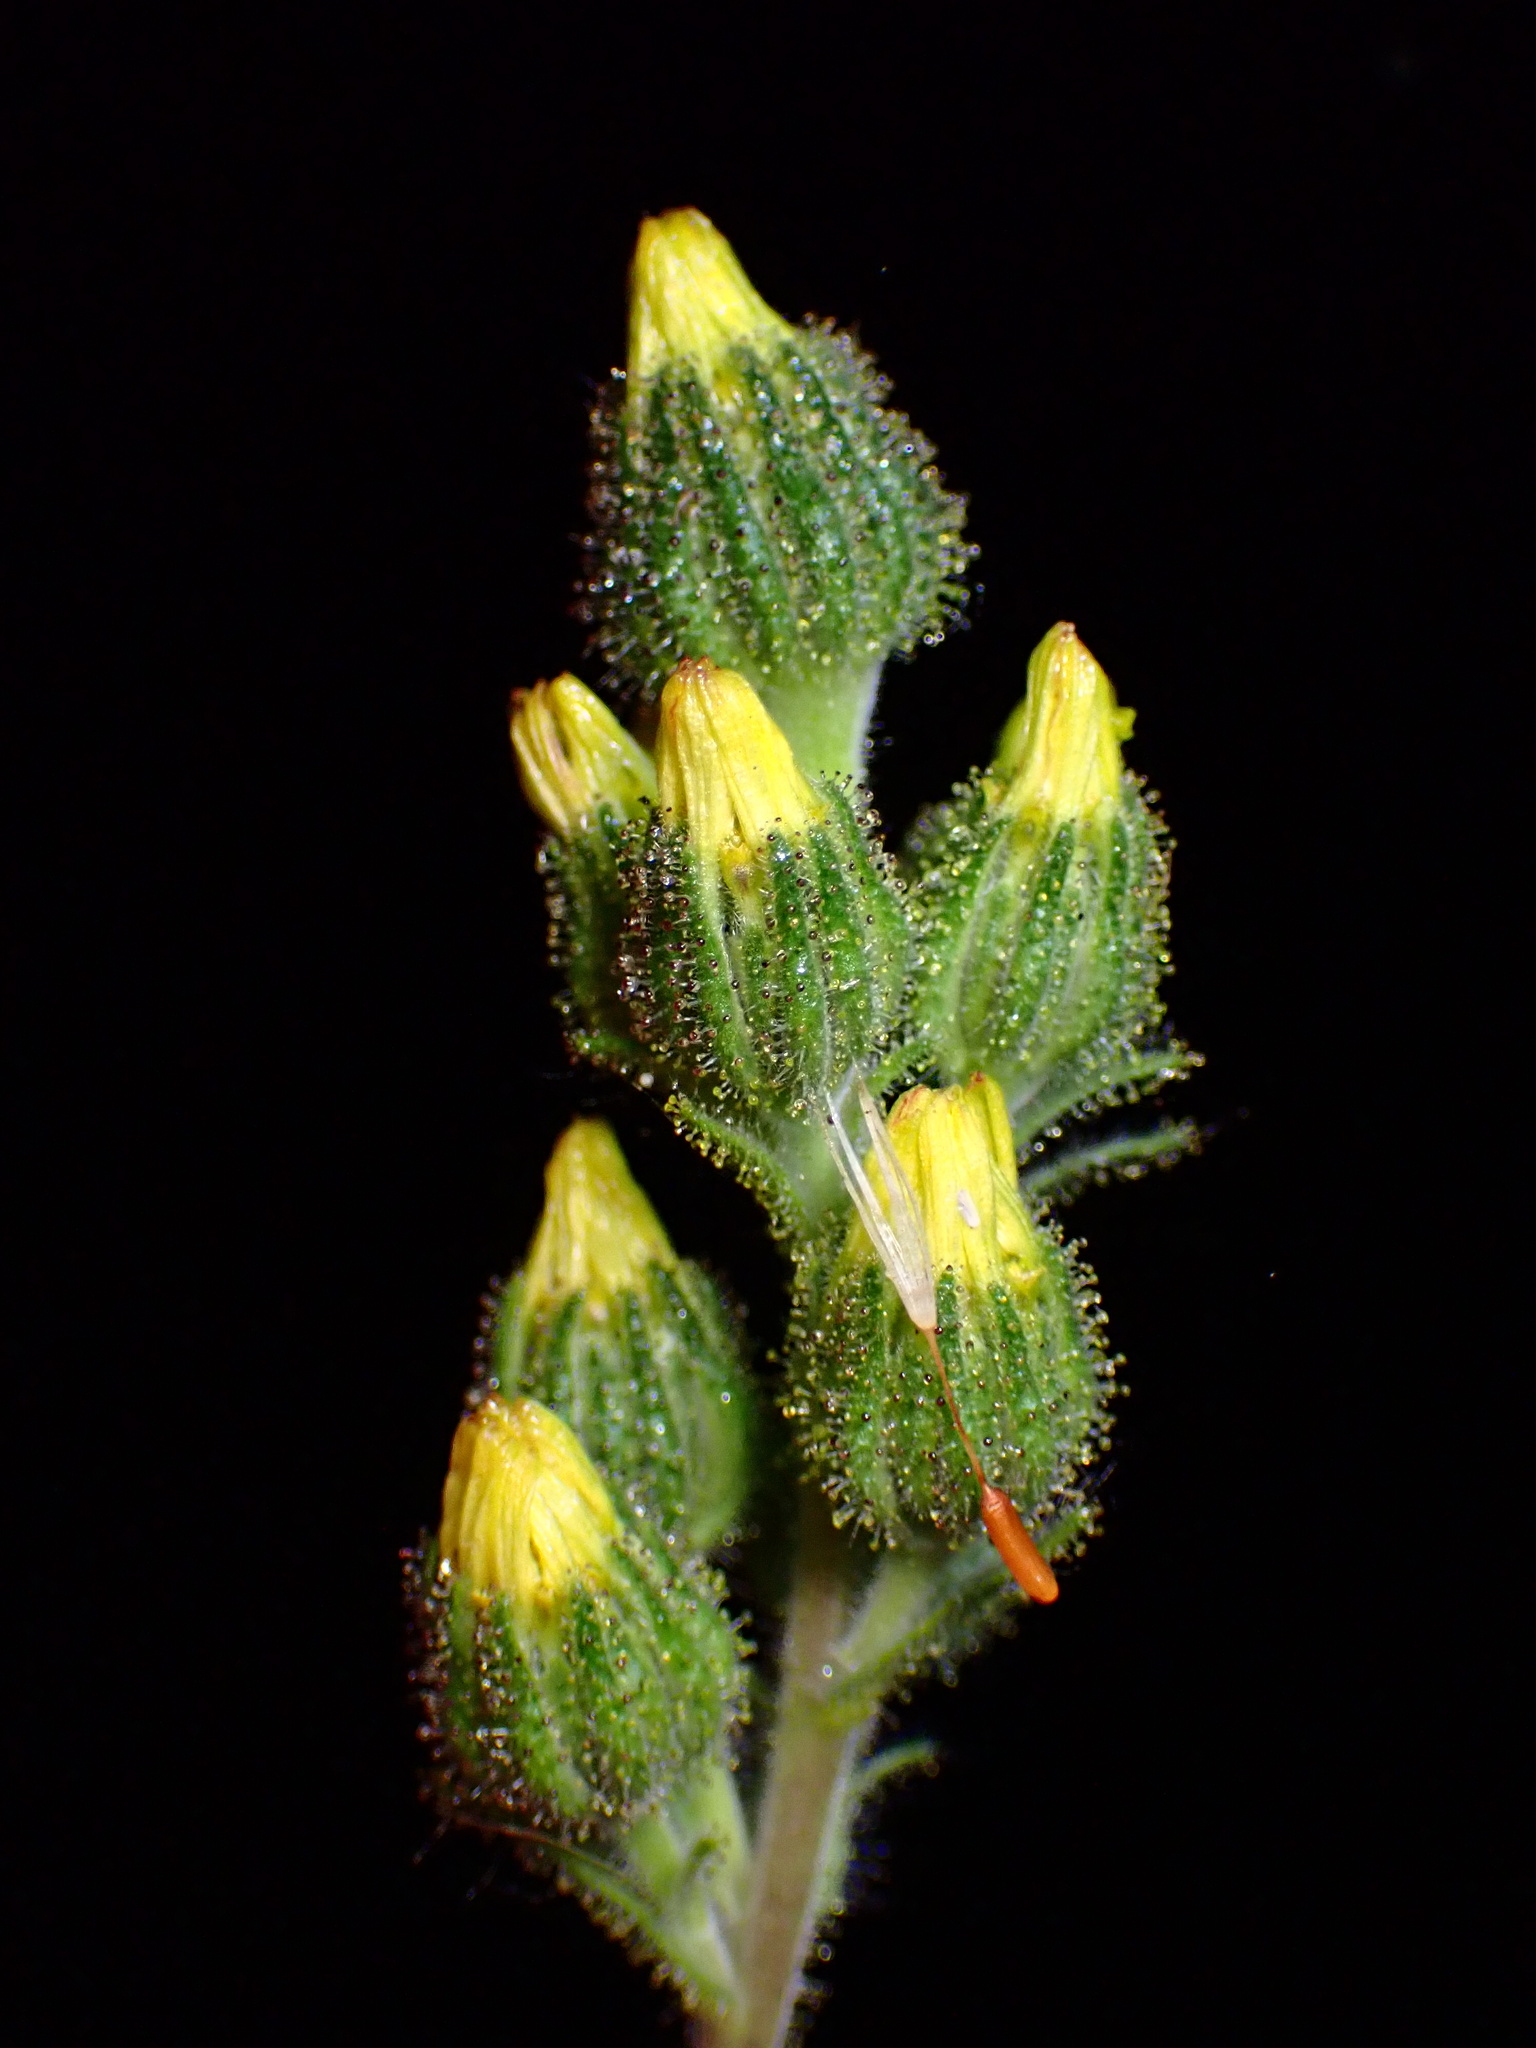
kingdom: Plantae
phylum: Tracheophyta
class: Magnoliopsida
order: Asterales
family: Asteraceae
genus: Madia
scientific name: Madia sativa
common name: Coast tarweed
